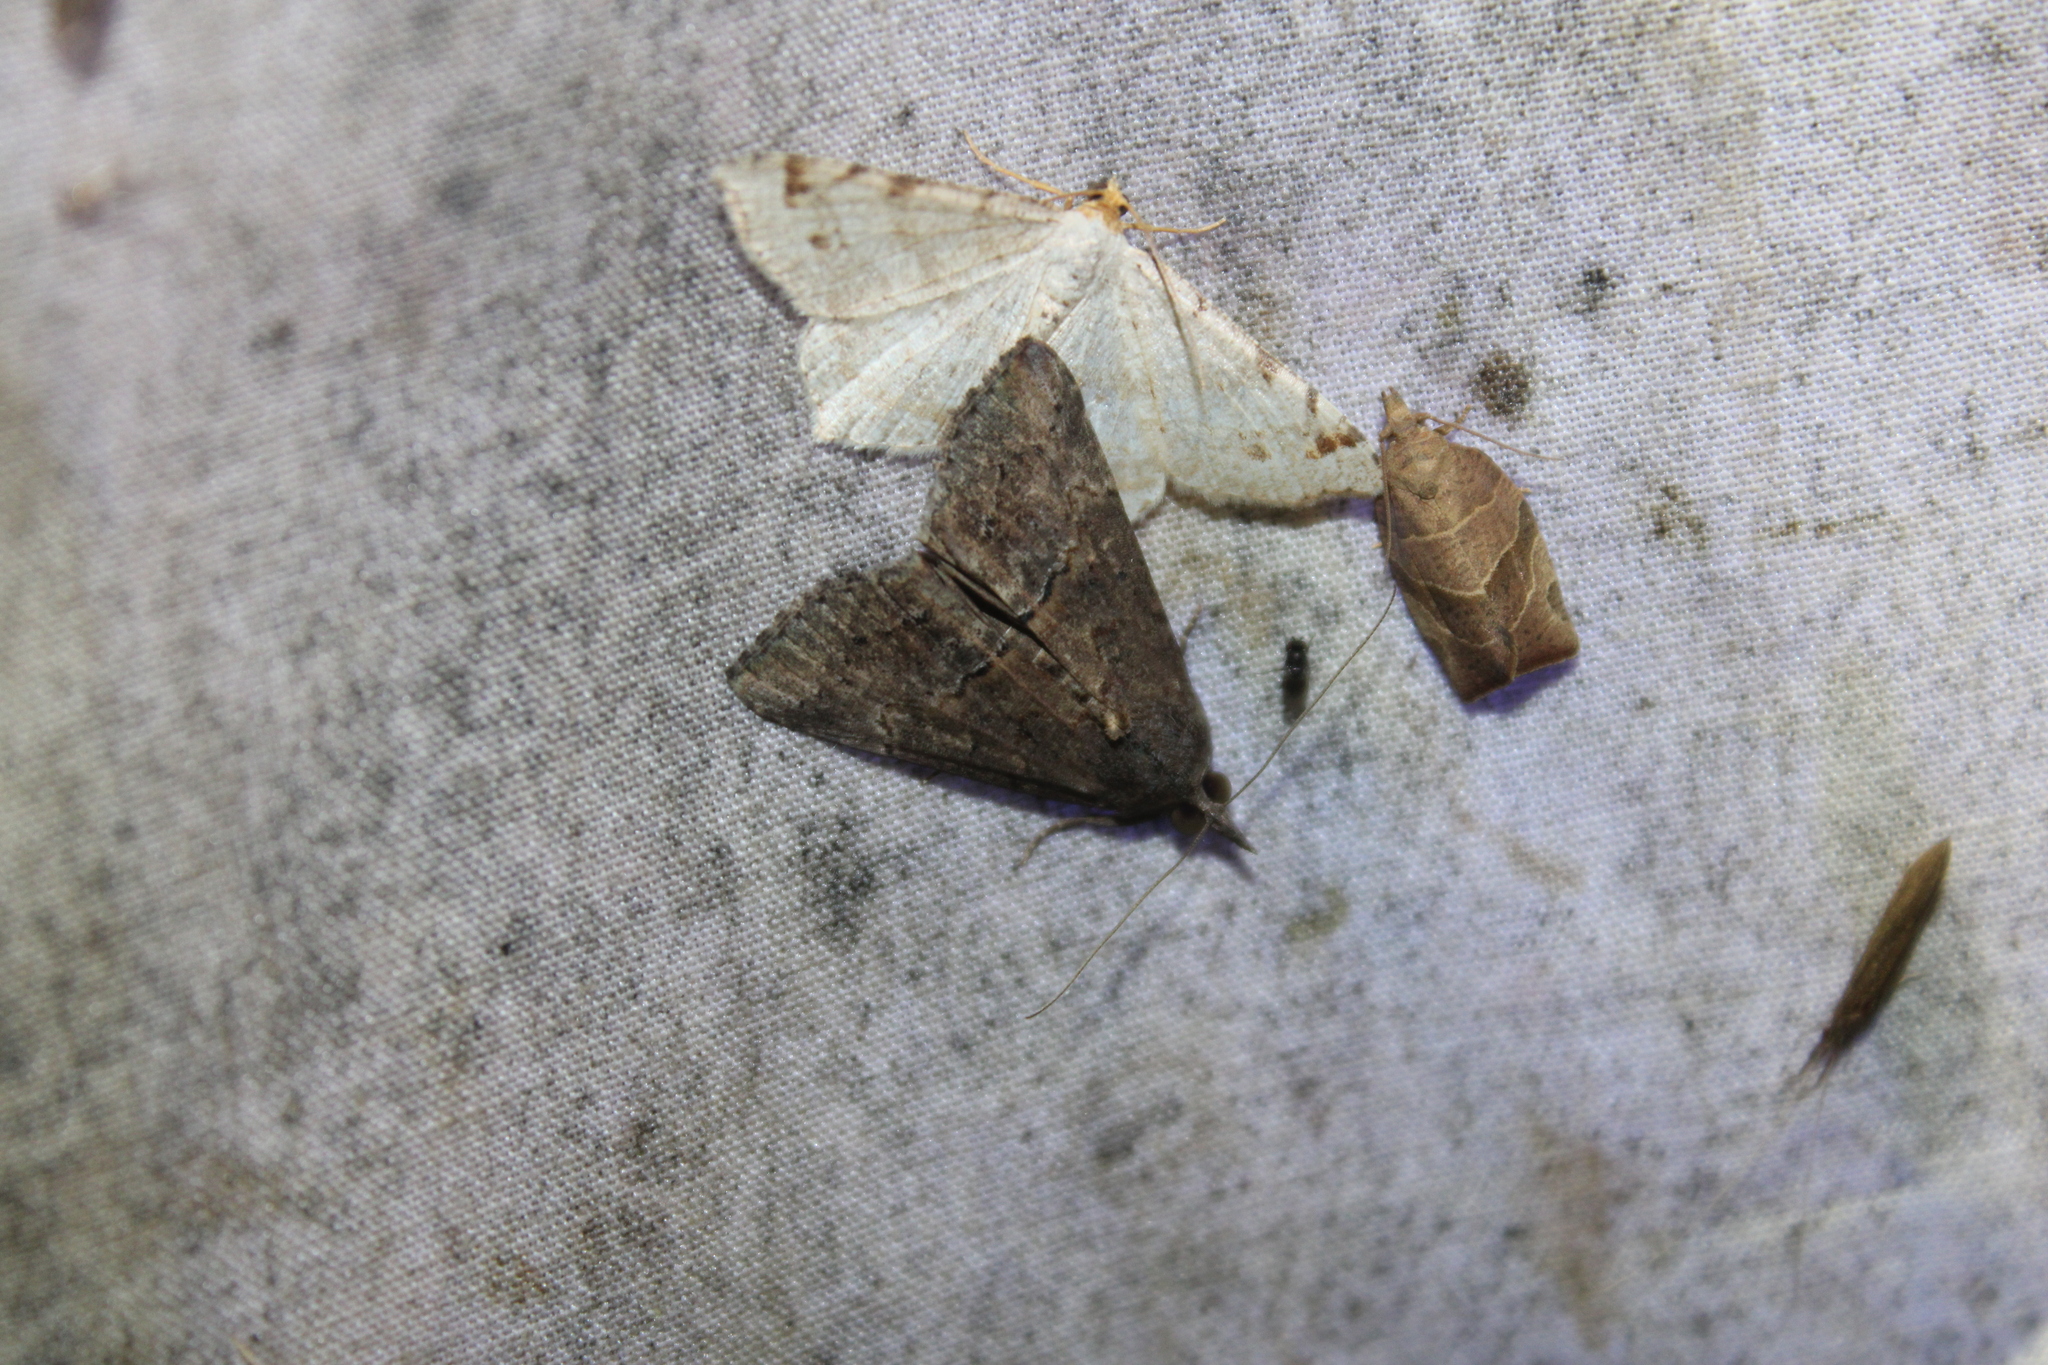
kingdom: Animalia
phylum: Arthropoda
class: Insecta
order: Lepidoptera
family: Erebidae
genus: Hypena
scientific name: Hypena scabra
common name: Green cloverworm
